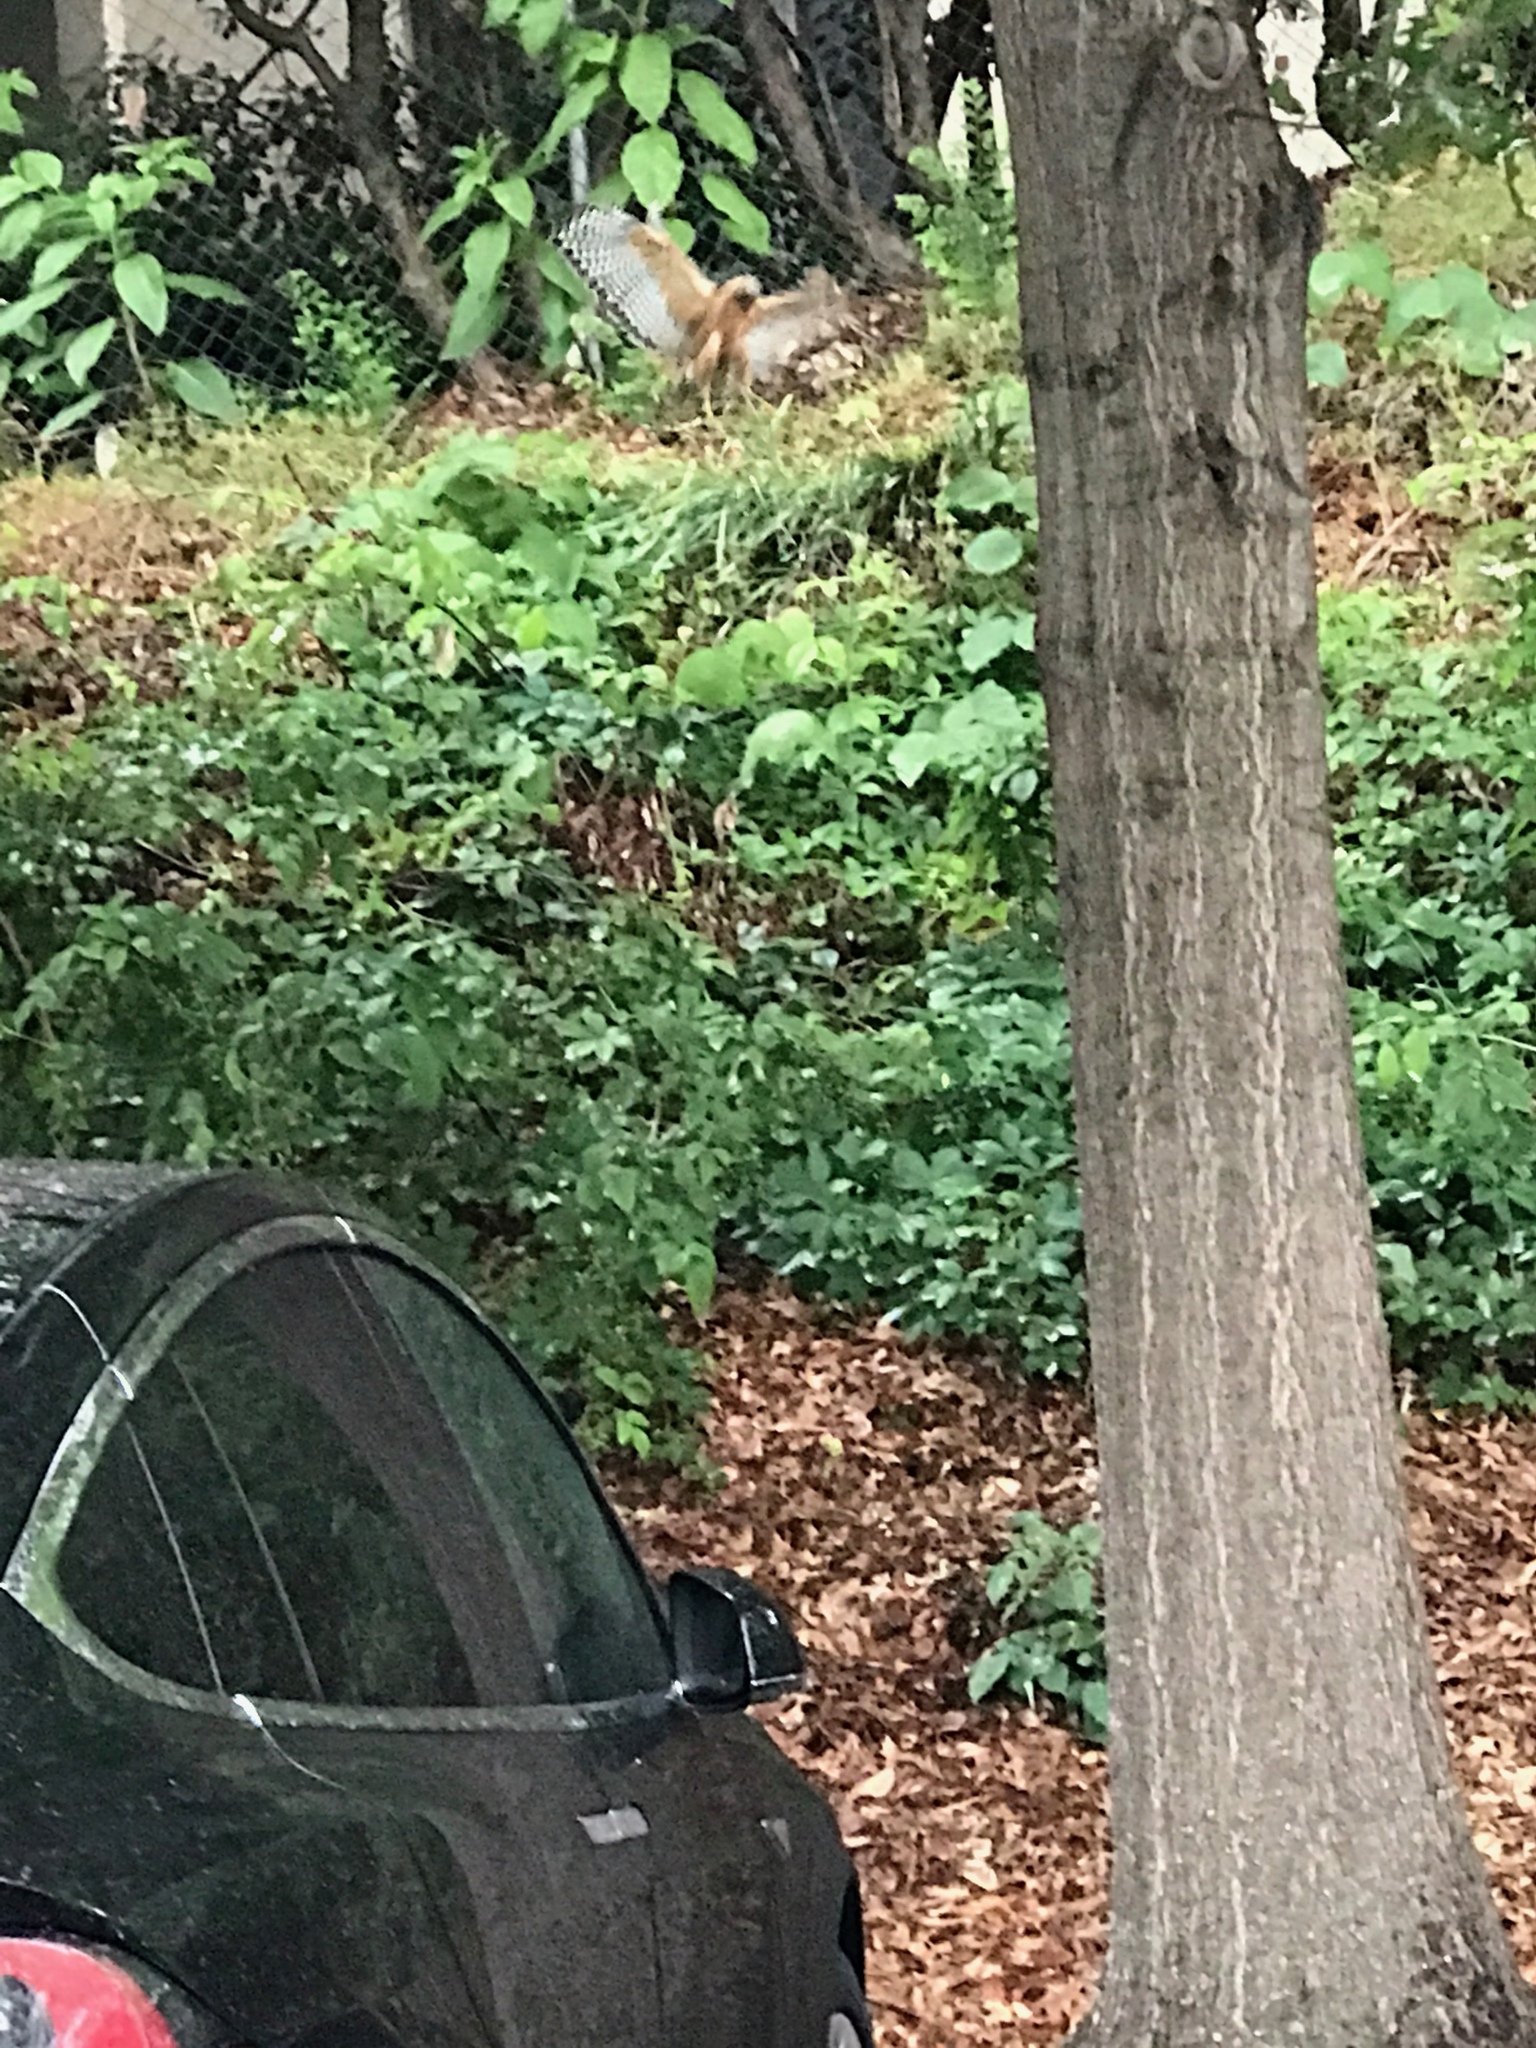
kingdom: Animalia
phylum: Chordata
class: Aves
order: Accipitriformes
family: Accipitridae
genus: Buteo
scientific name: Buteo lineatus
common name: Red-shouldered hawk
